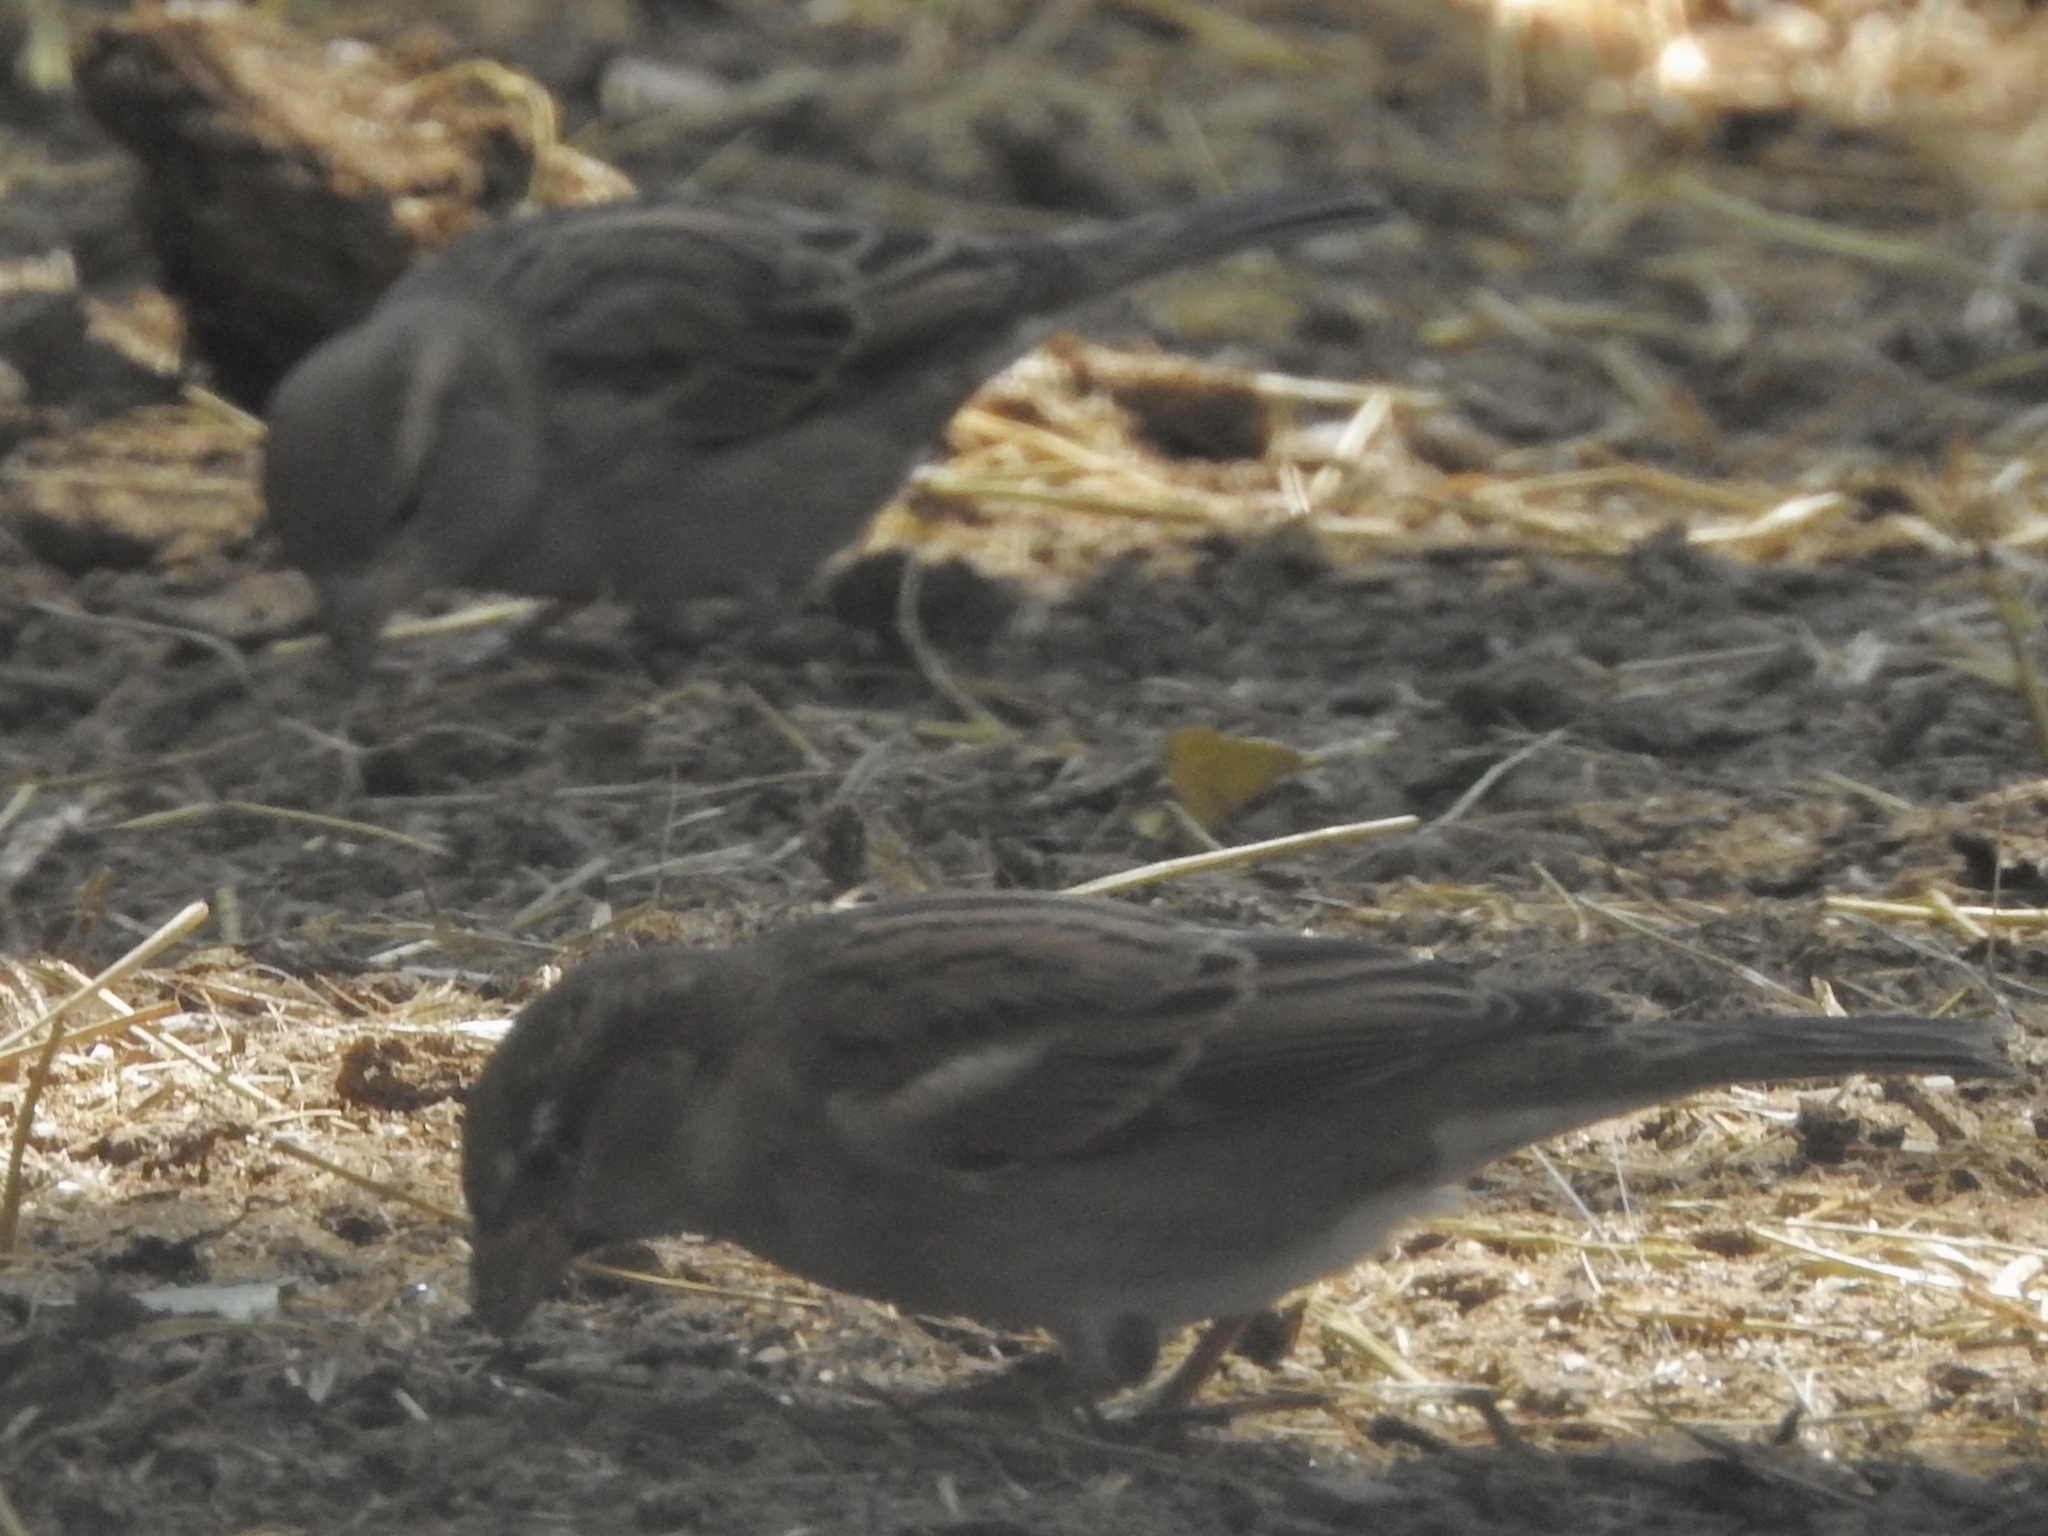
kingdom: Animalia
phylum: Chordata
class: Aves
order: Passeriformes
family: Passeridae
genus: Passer
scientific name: Passer domesticus
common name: House sparrow
